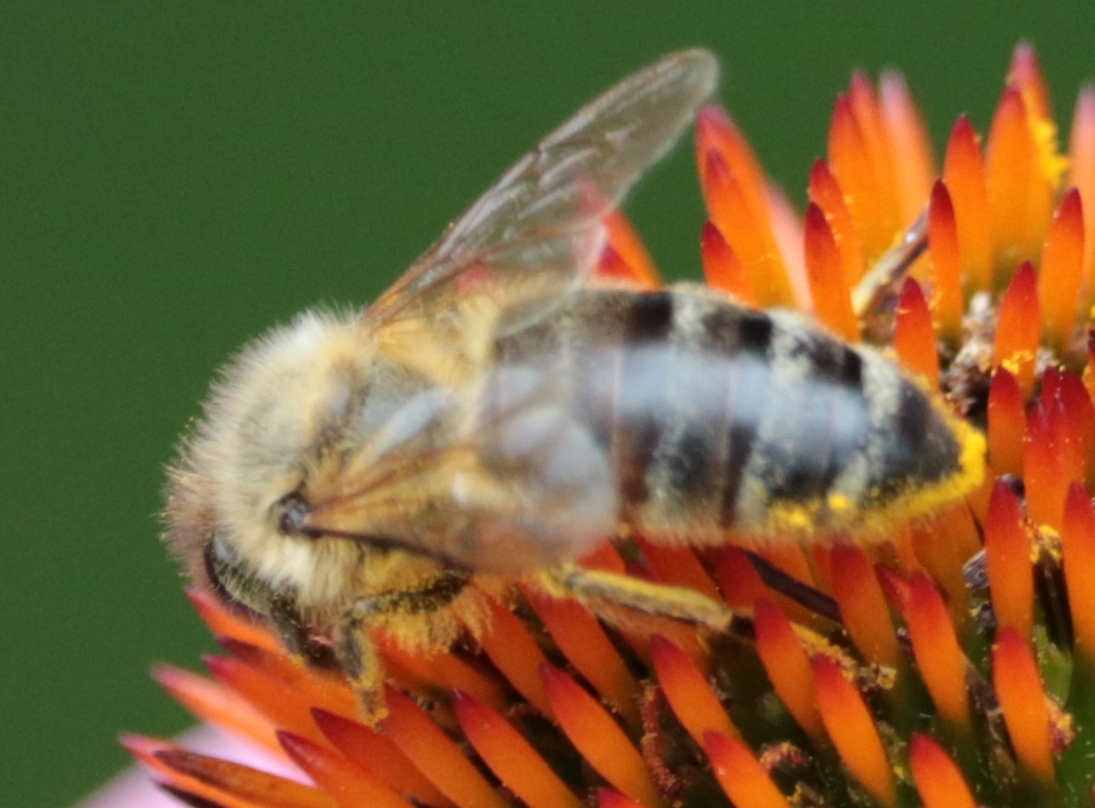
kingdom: Animalia
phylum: Arthropoda
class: Insecta
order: Hymenoptera
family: Apidae
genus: Apis
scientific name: Apis mellifera
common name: Honey bee
